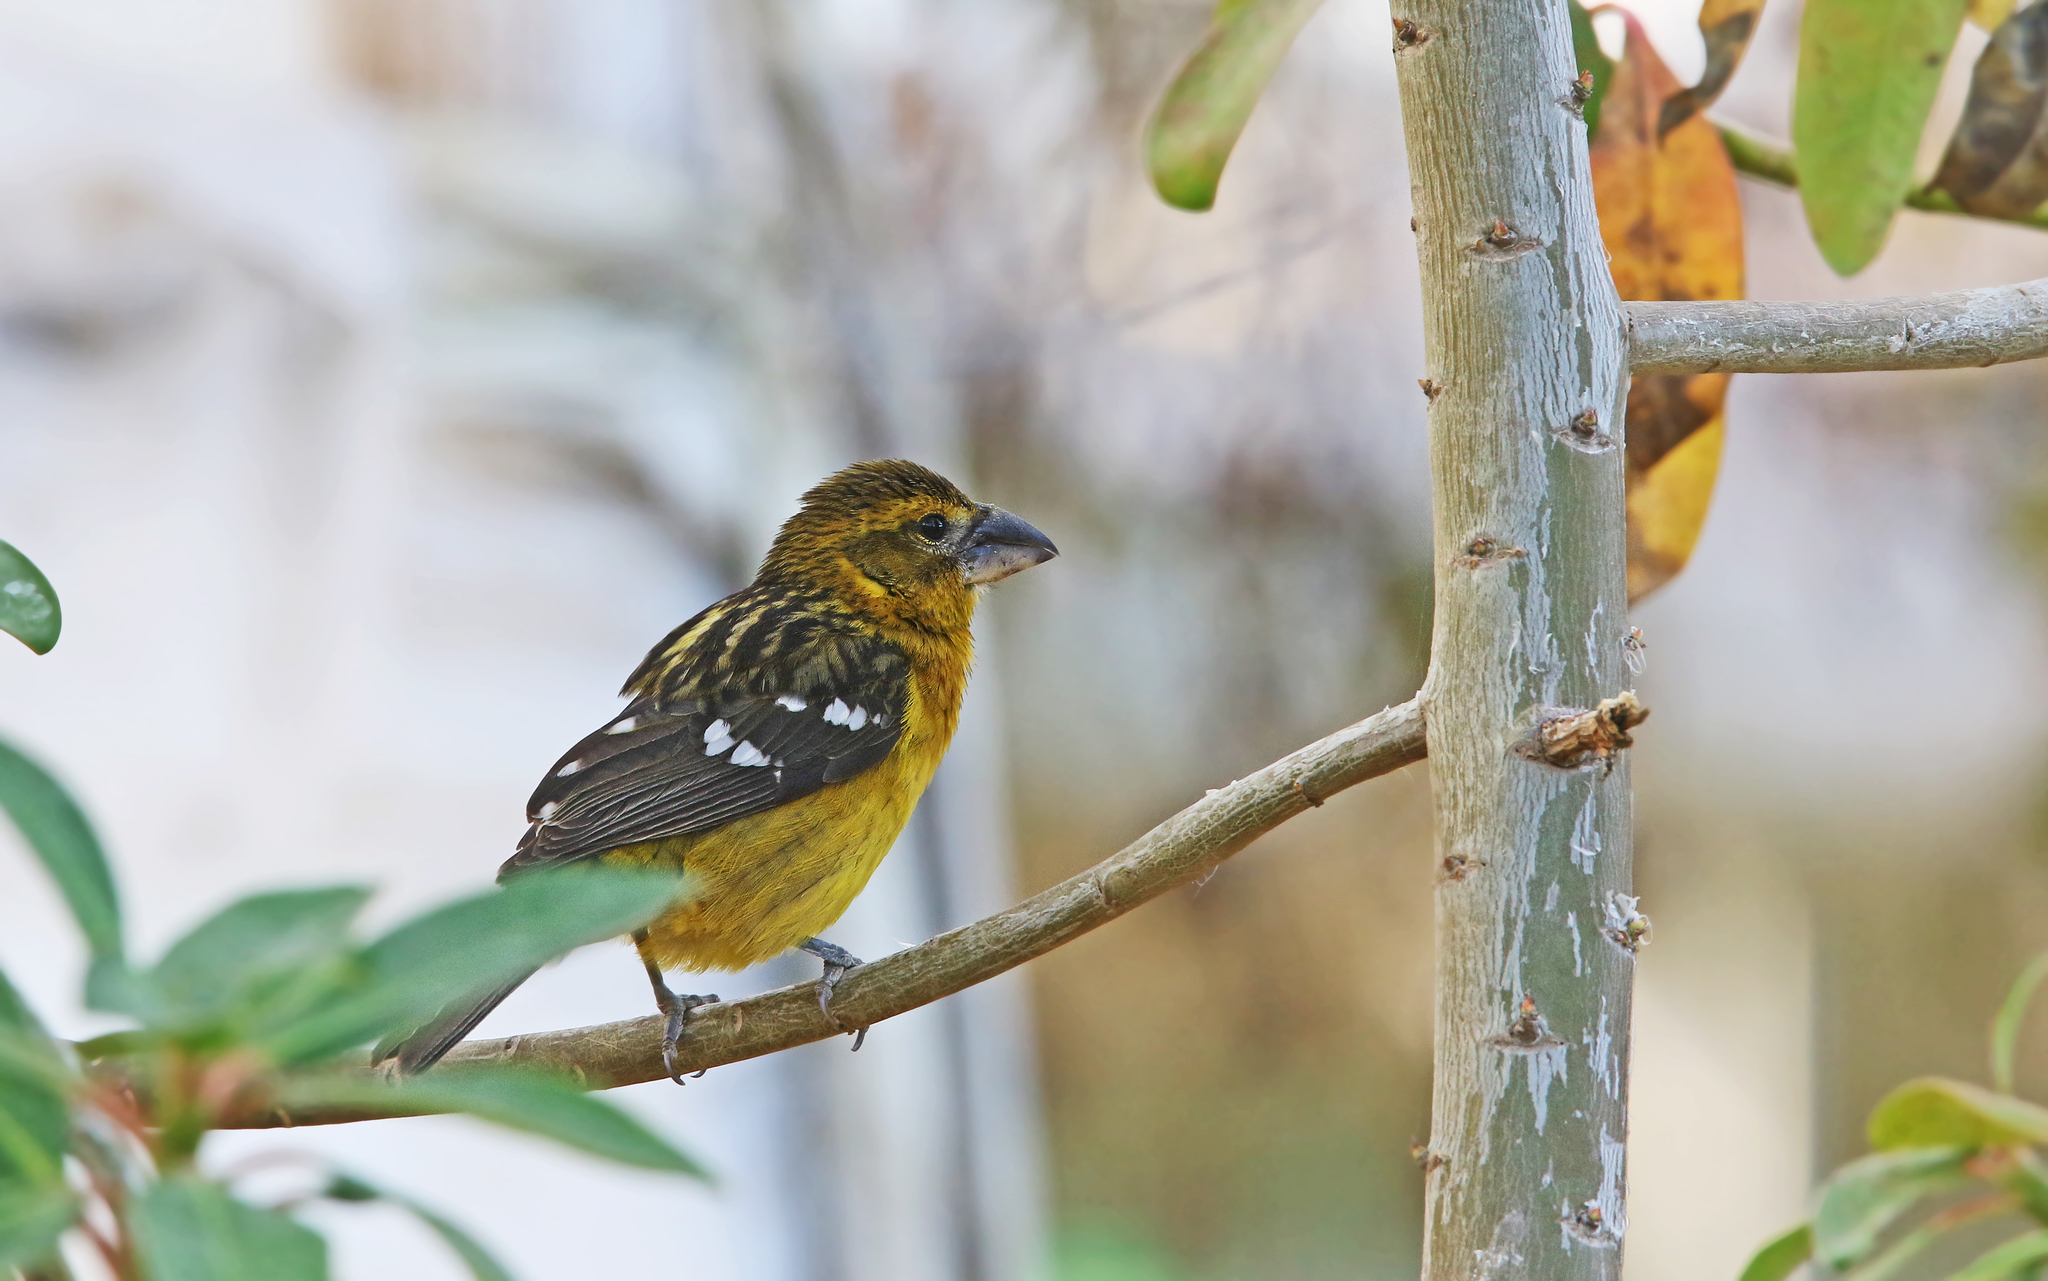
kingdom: Animalia
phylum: Chordata
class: Aves
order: Passeriformes
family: Cardinalidae
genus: Pheucticus
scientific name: Pheucticus chrysogaster
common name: Golden grosbeak
